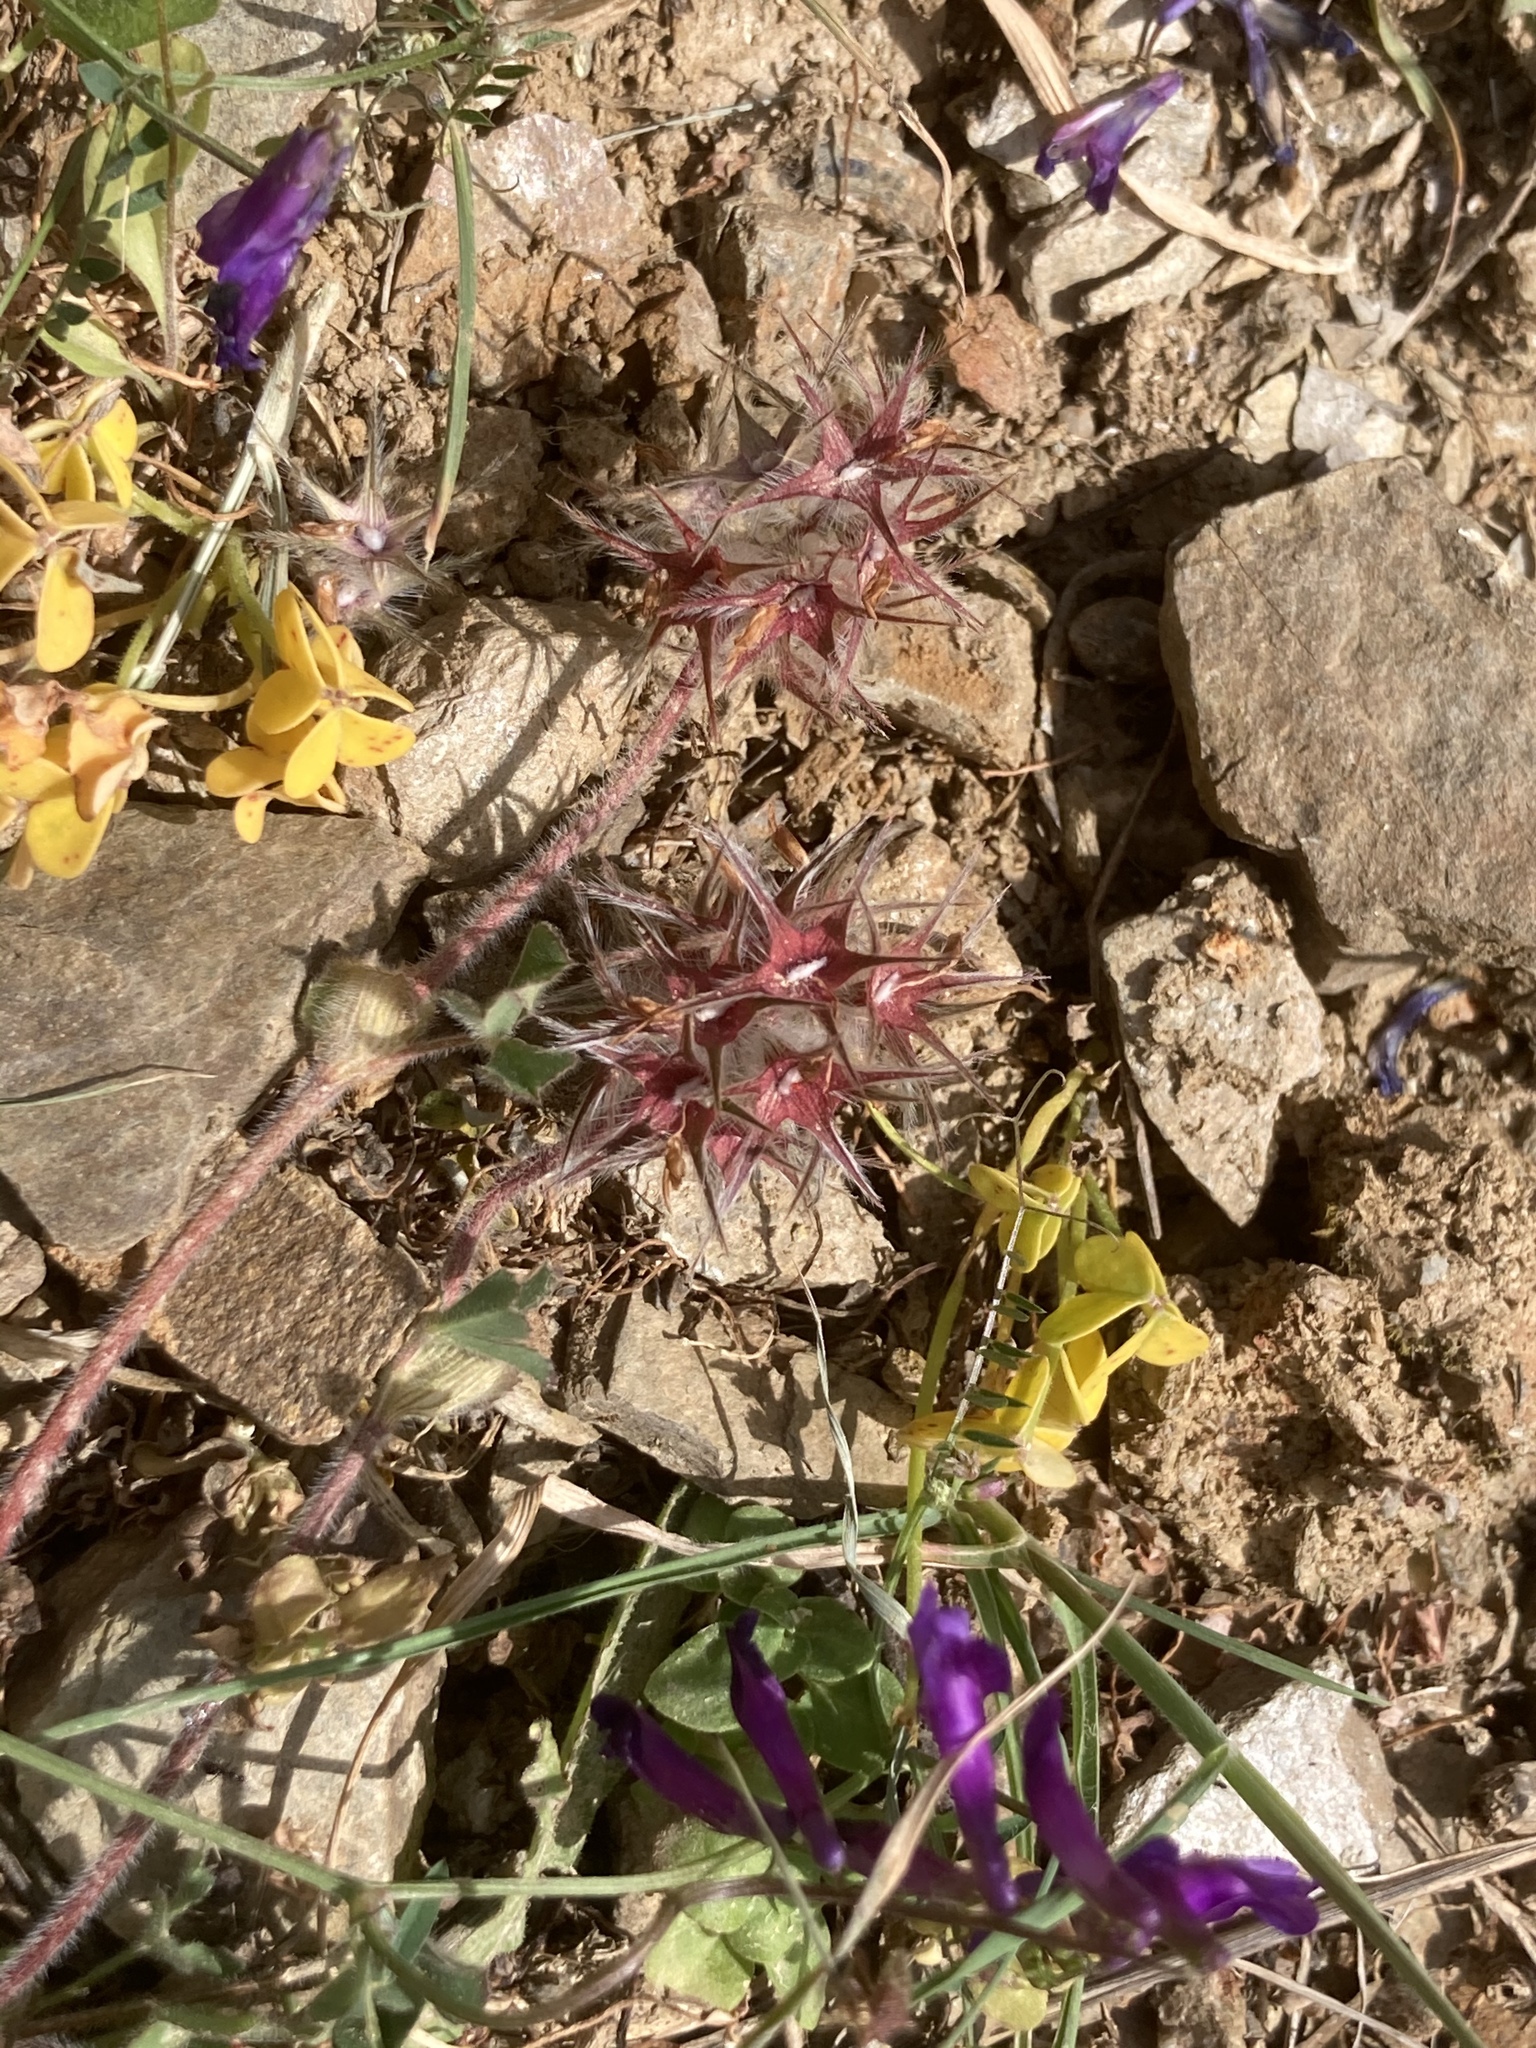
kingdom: Plantae
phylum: Tracheophyta
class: Magnoliopsida
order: Fabales
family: Fabaceae
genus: Trifolium
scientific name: Trifolium stellatum
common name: Starry clover
